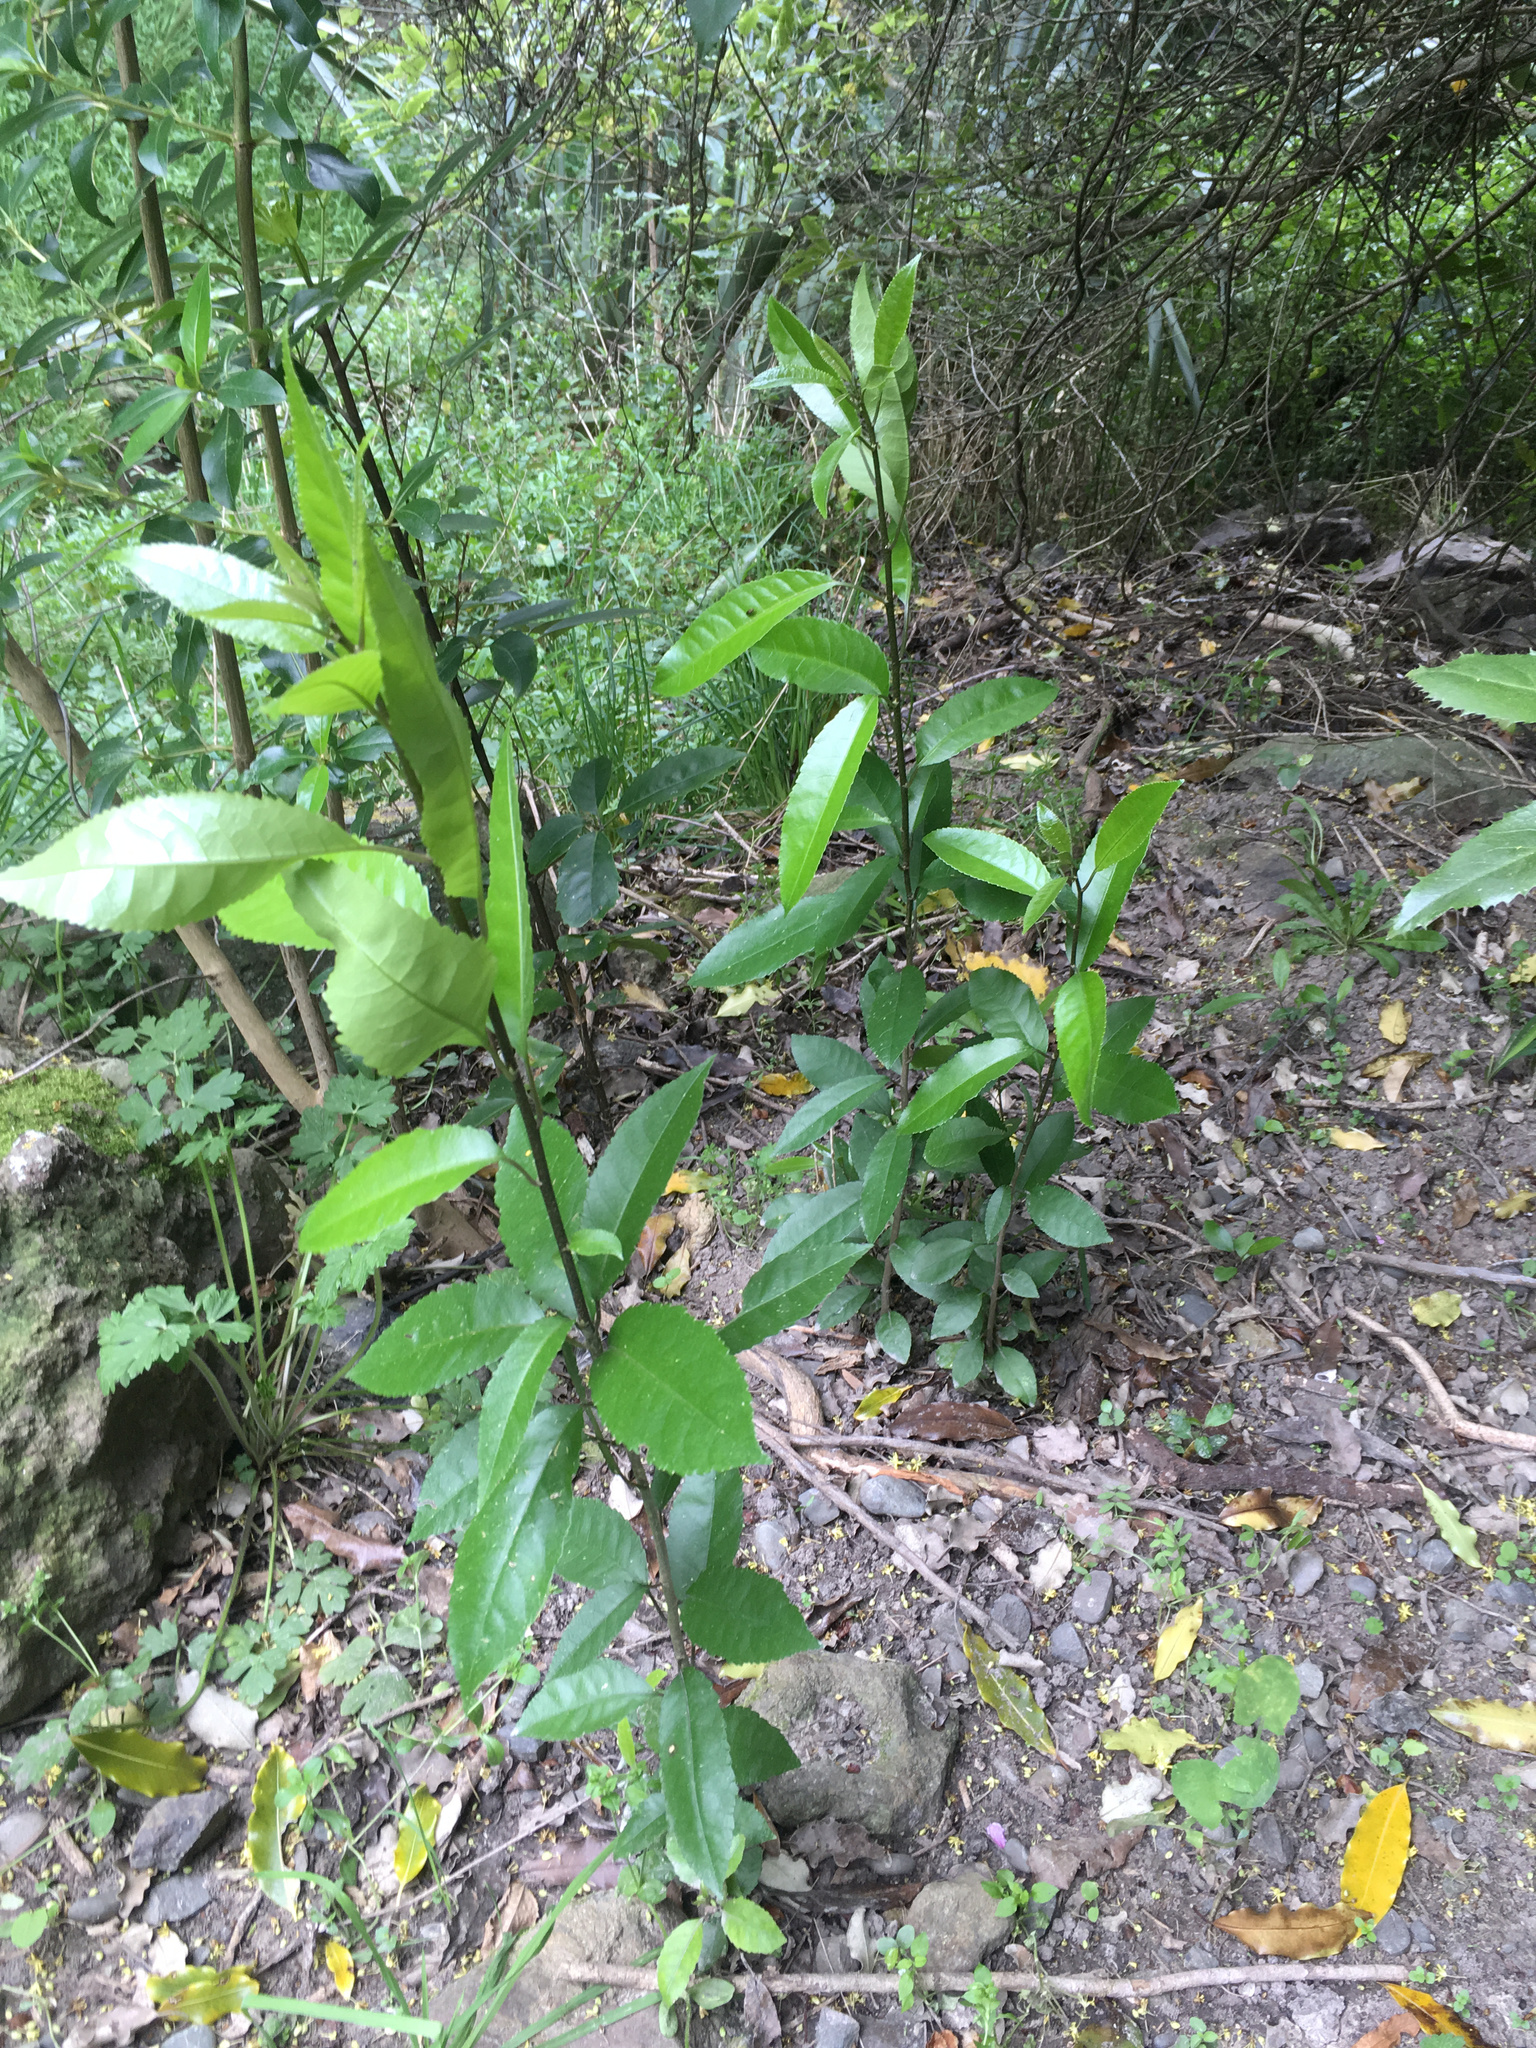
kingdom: Plantae
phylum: Tracheophyta
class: Magnoliopsida
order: Malpighiales
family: Violaceae
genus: Melicytus
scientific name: Melicytus ramiflorus
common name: Mahoe
